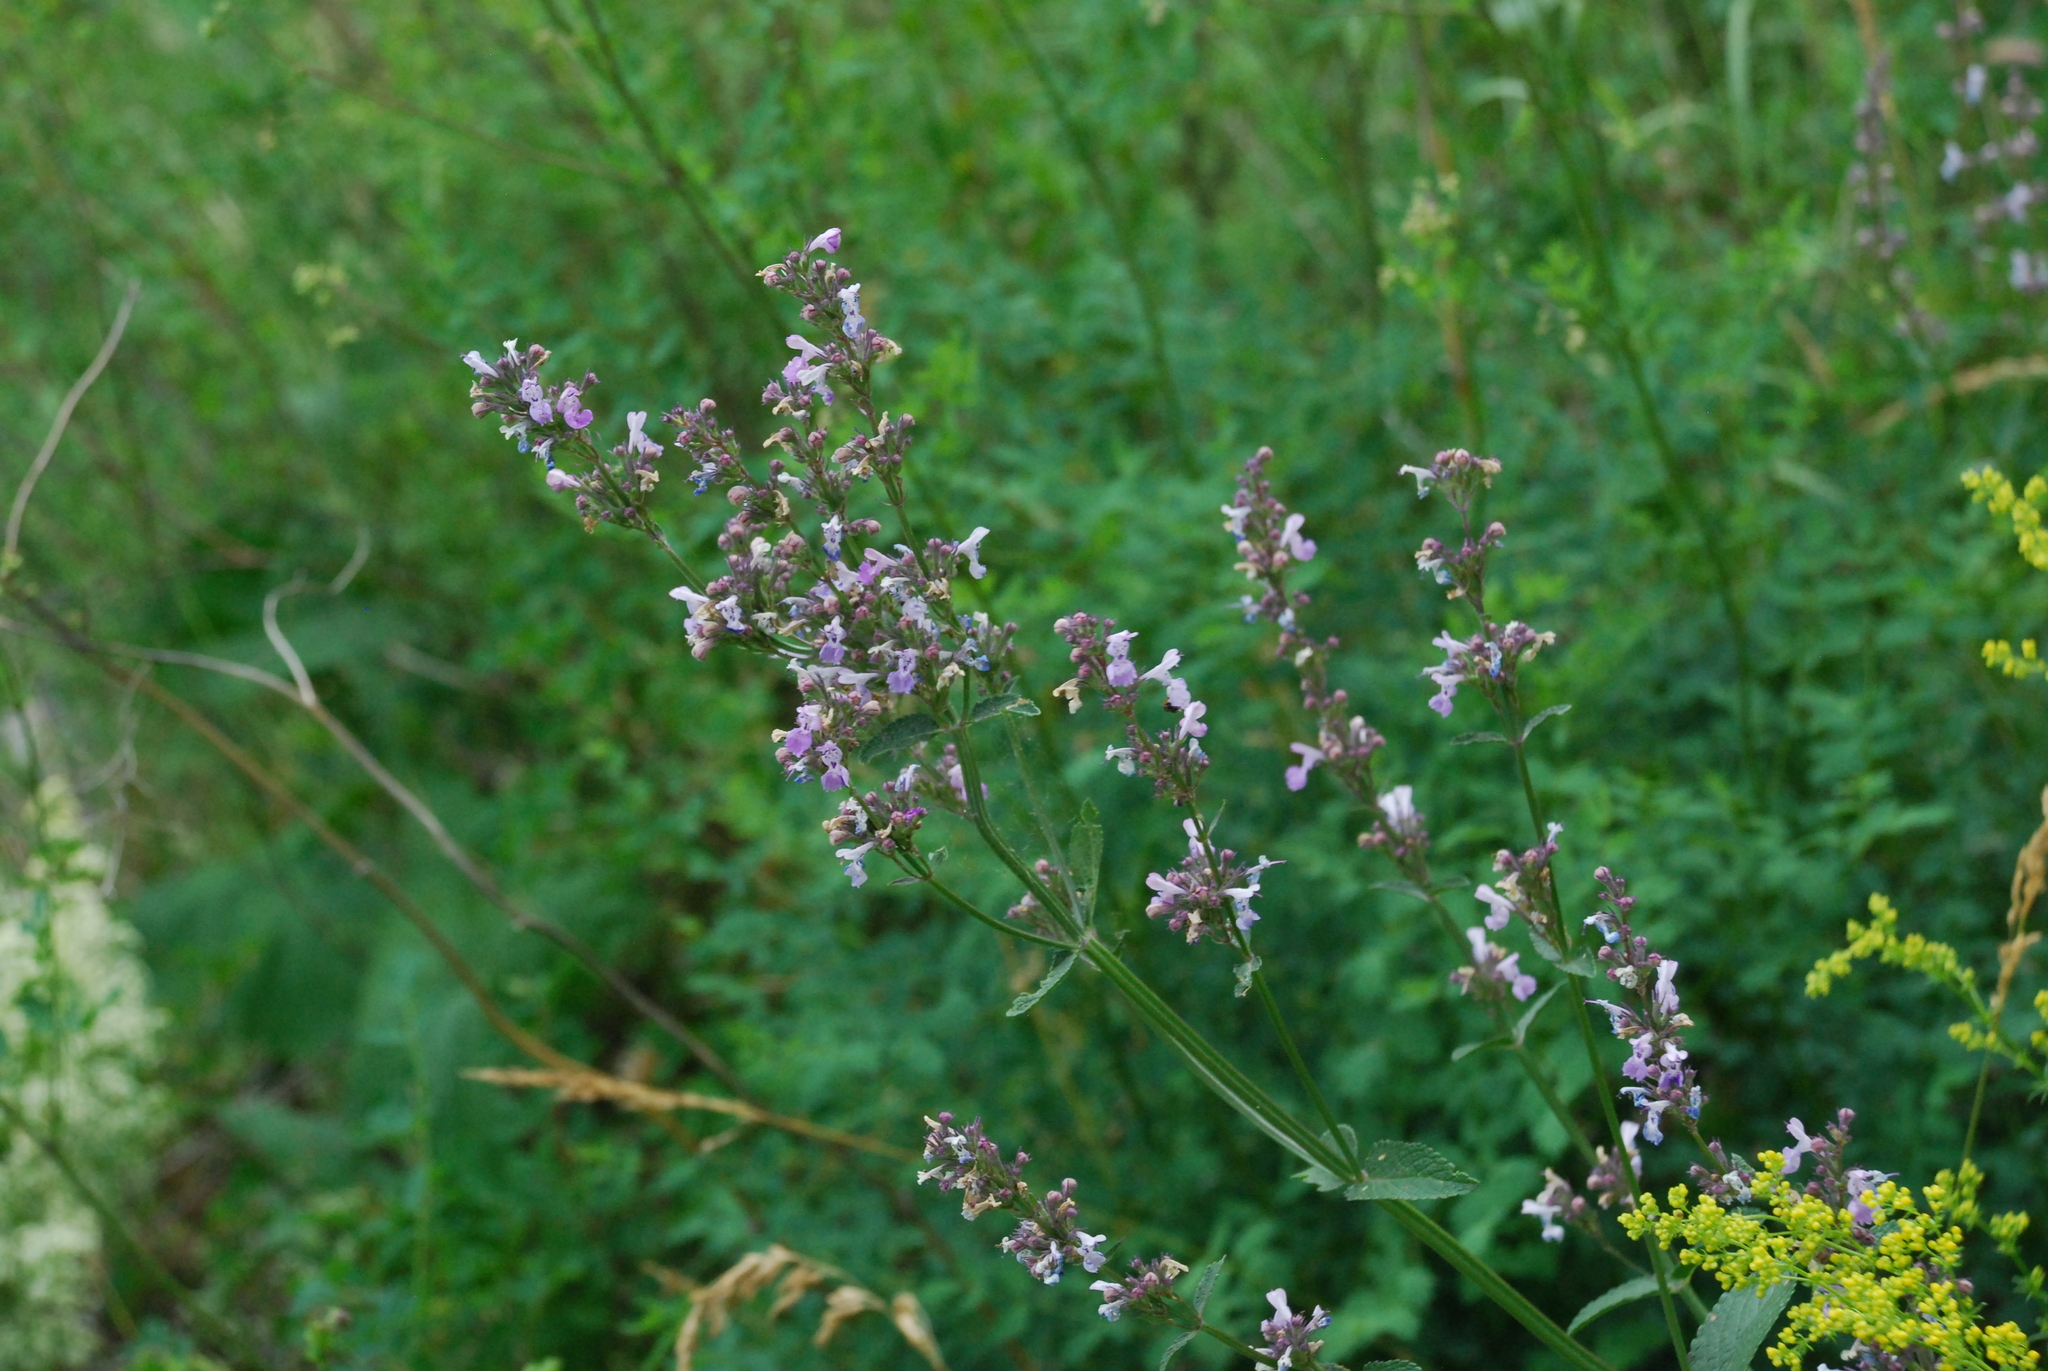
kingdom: Plantae
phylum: Tracheophyta
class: Magnoliopsida
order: Lamiales
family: Lamiaceae
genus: Nepeta
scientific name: Nepeta nuda
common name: Hairless catmint
